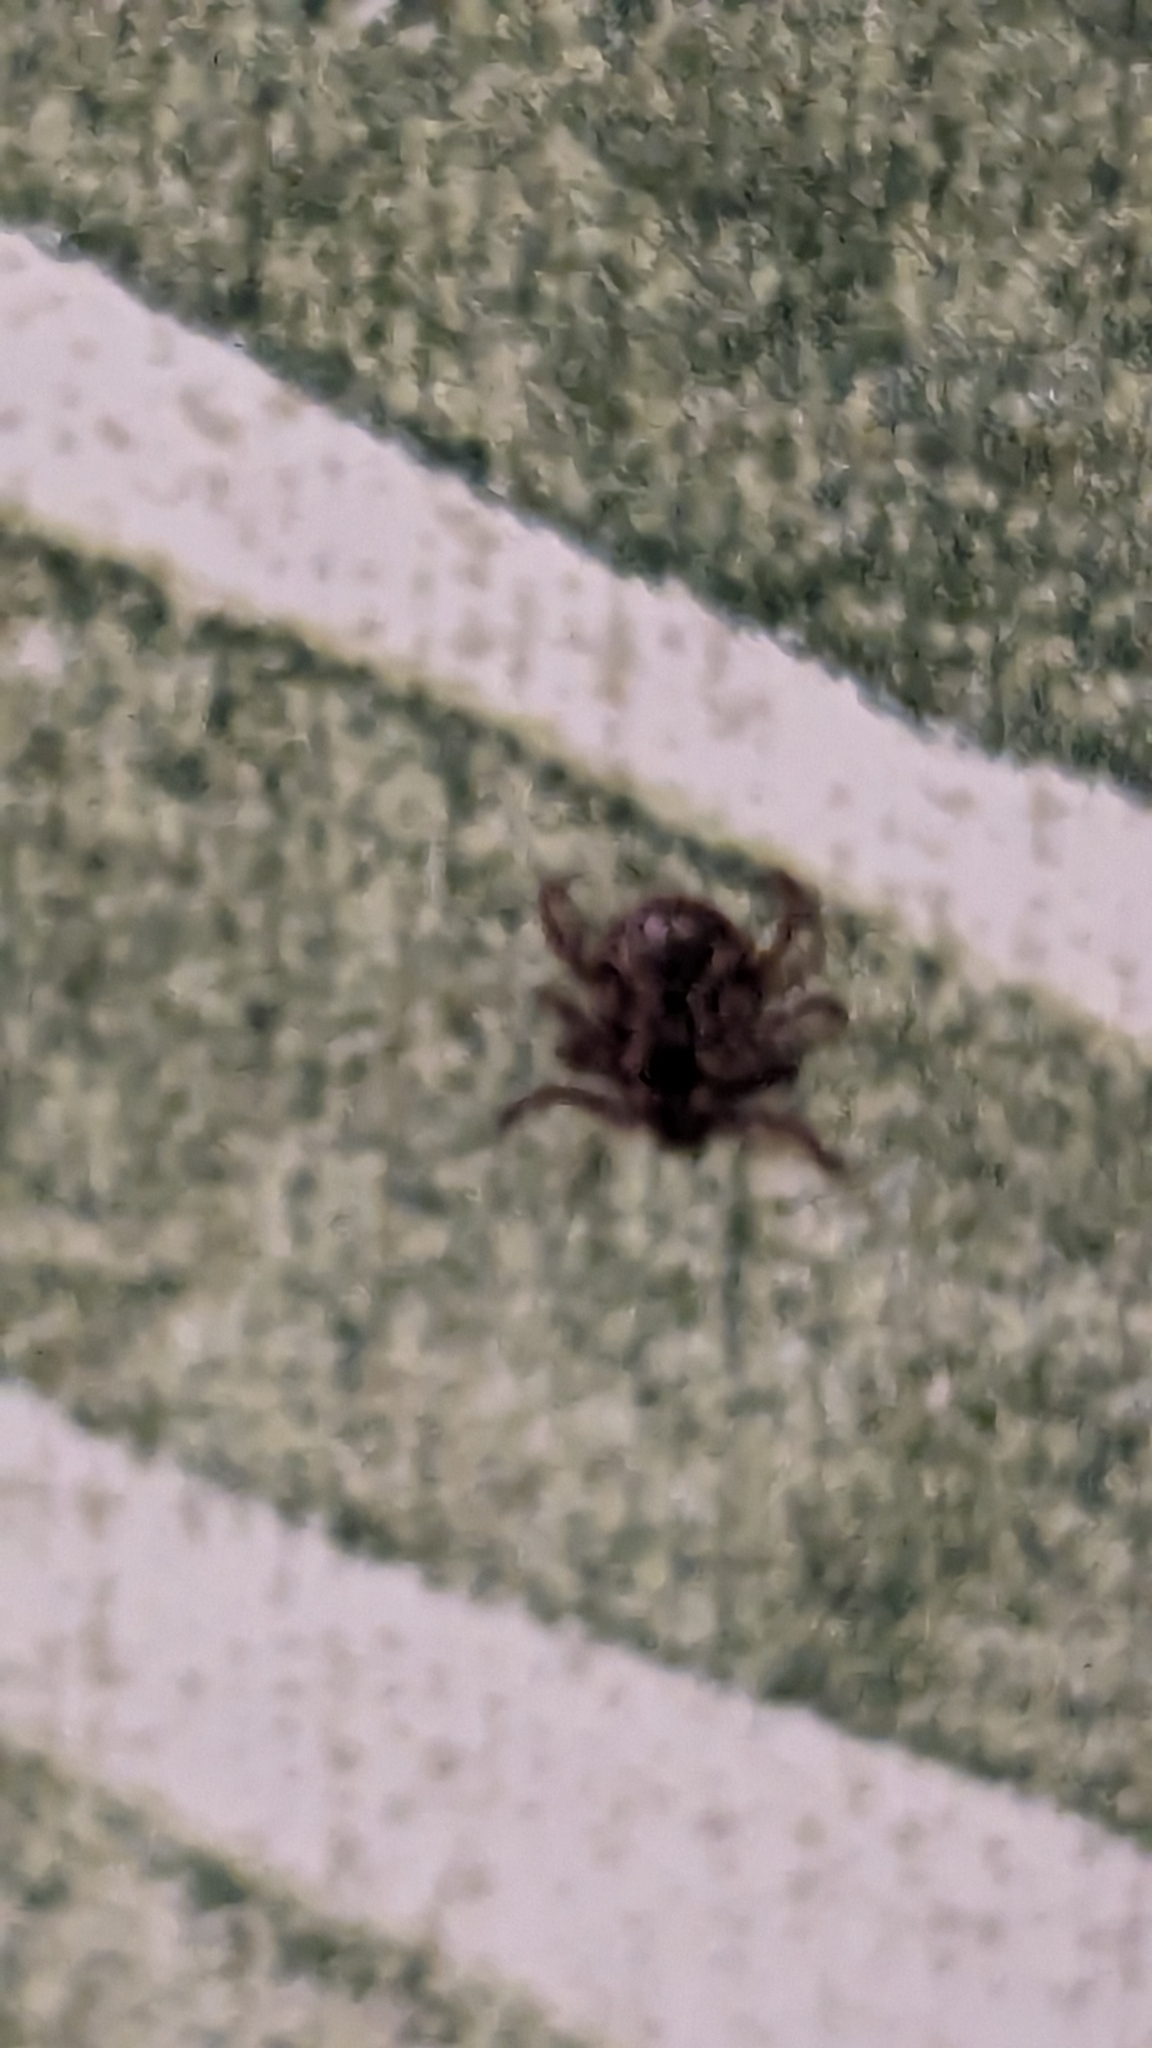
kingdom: Animalia
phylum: Arthropoda
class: Arachnida
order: Ixodida
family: Ixodidae
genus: Dermacentor
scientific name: Dermacentor variabilis
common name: American dog tick
